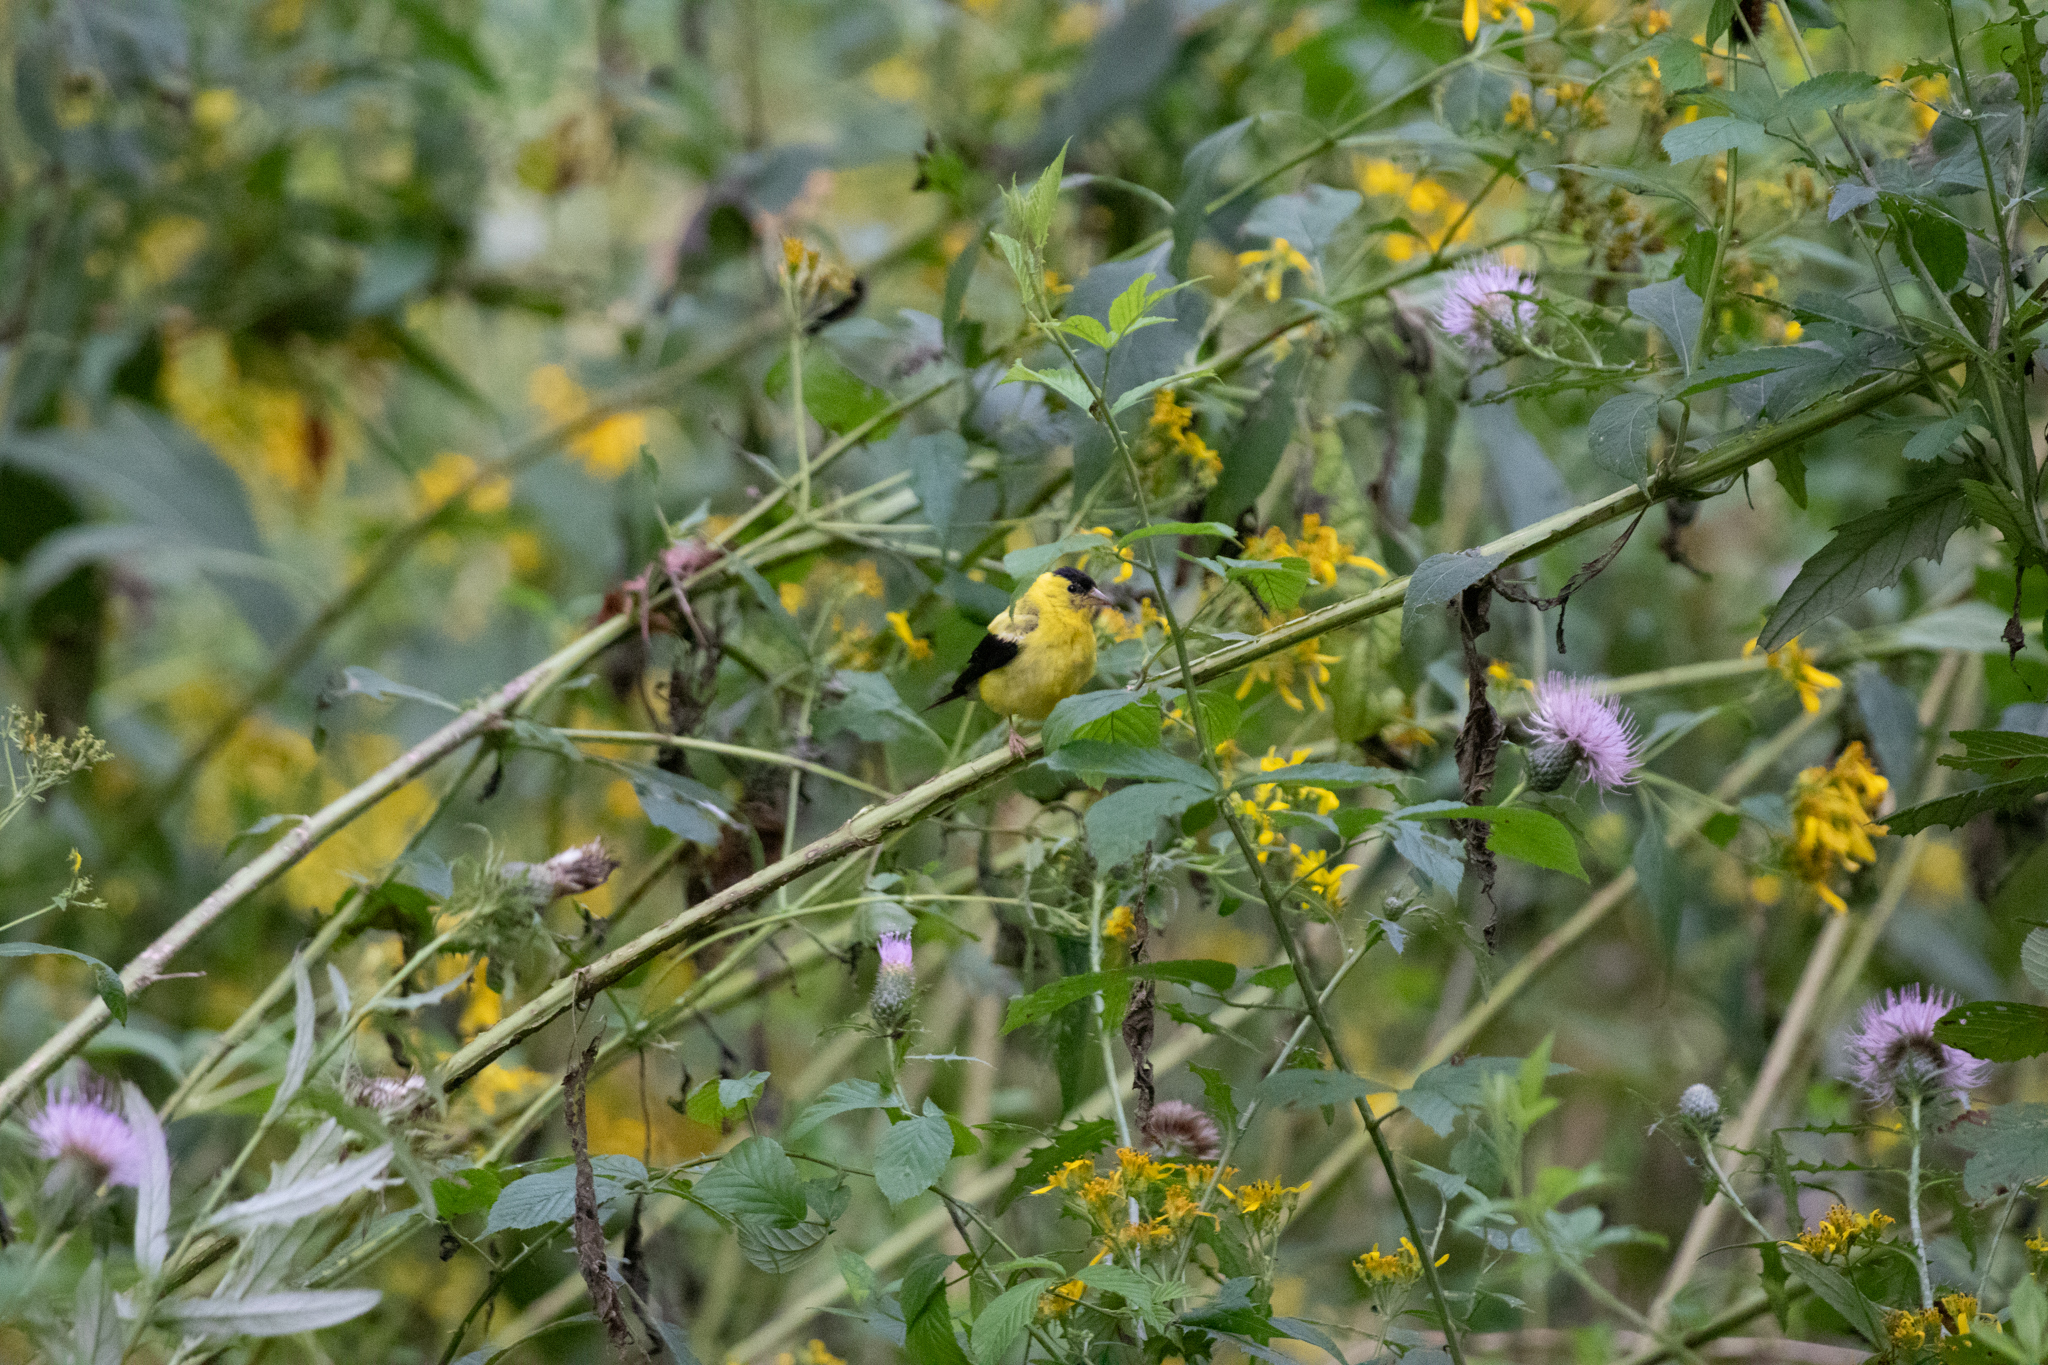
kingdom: Animalia
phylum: Chordata
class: Aves
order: Passeriformes
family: Fringillidae
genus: Spinus
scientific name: Spinus tristis
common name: American goldfinch
